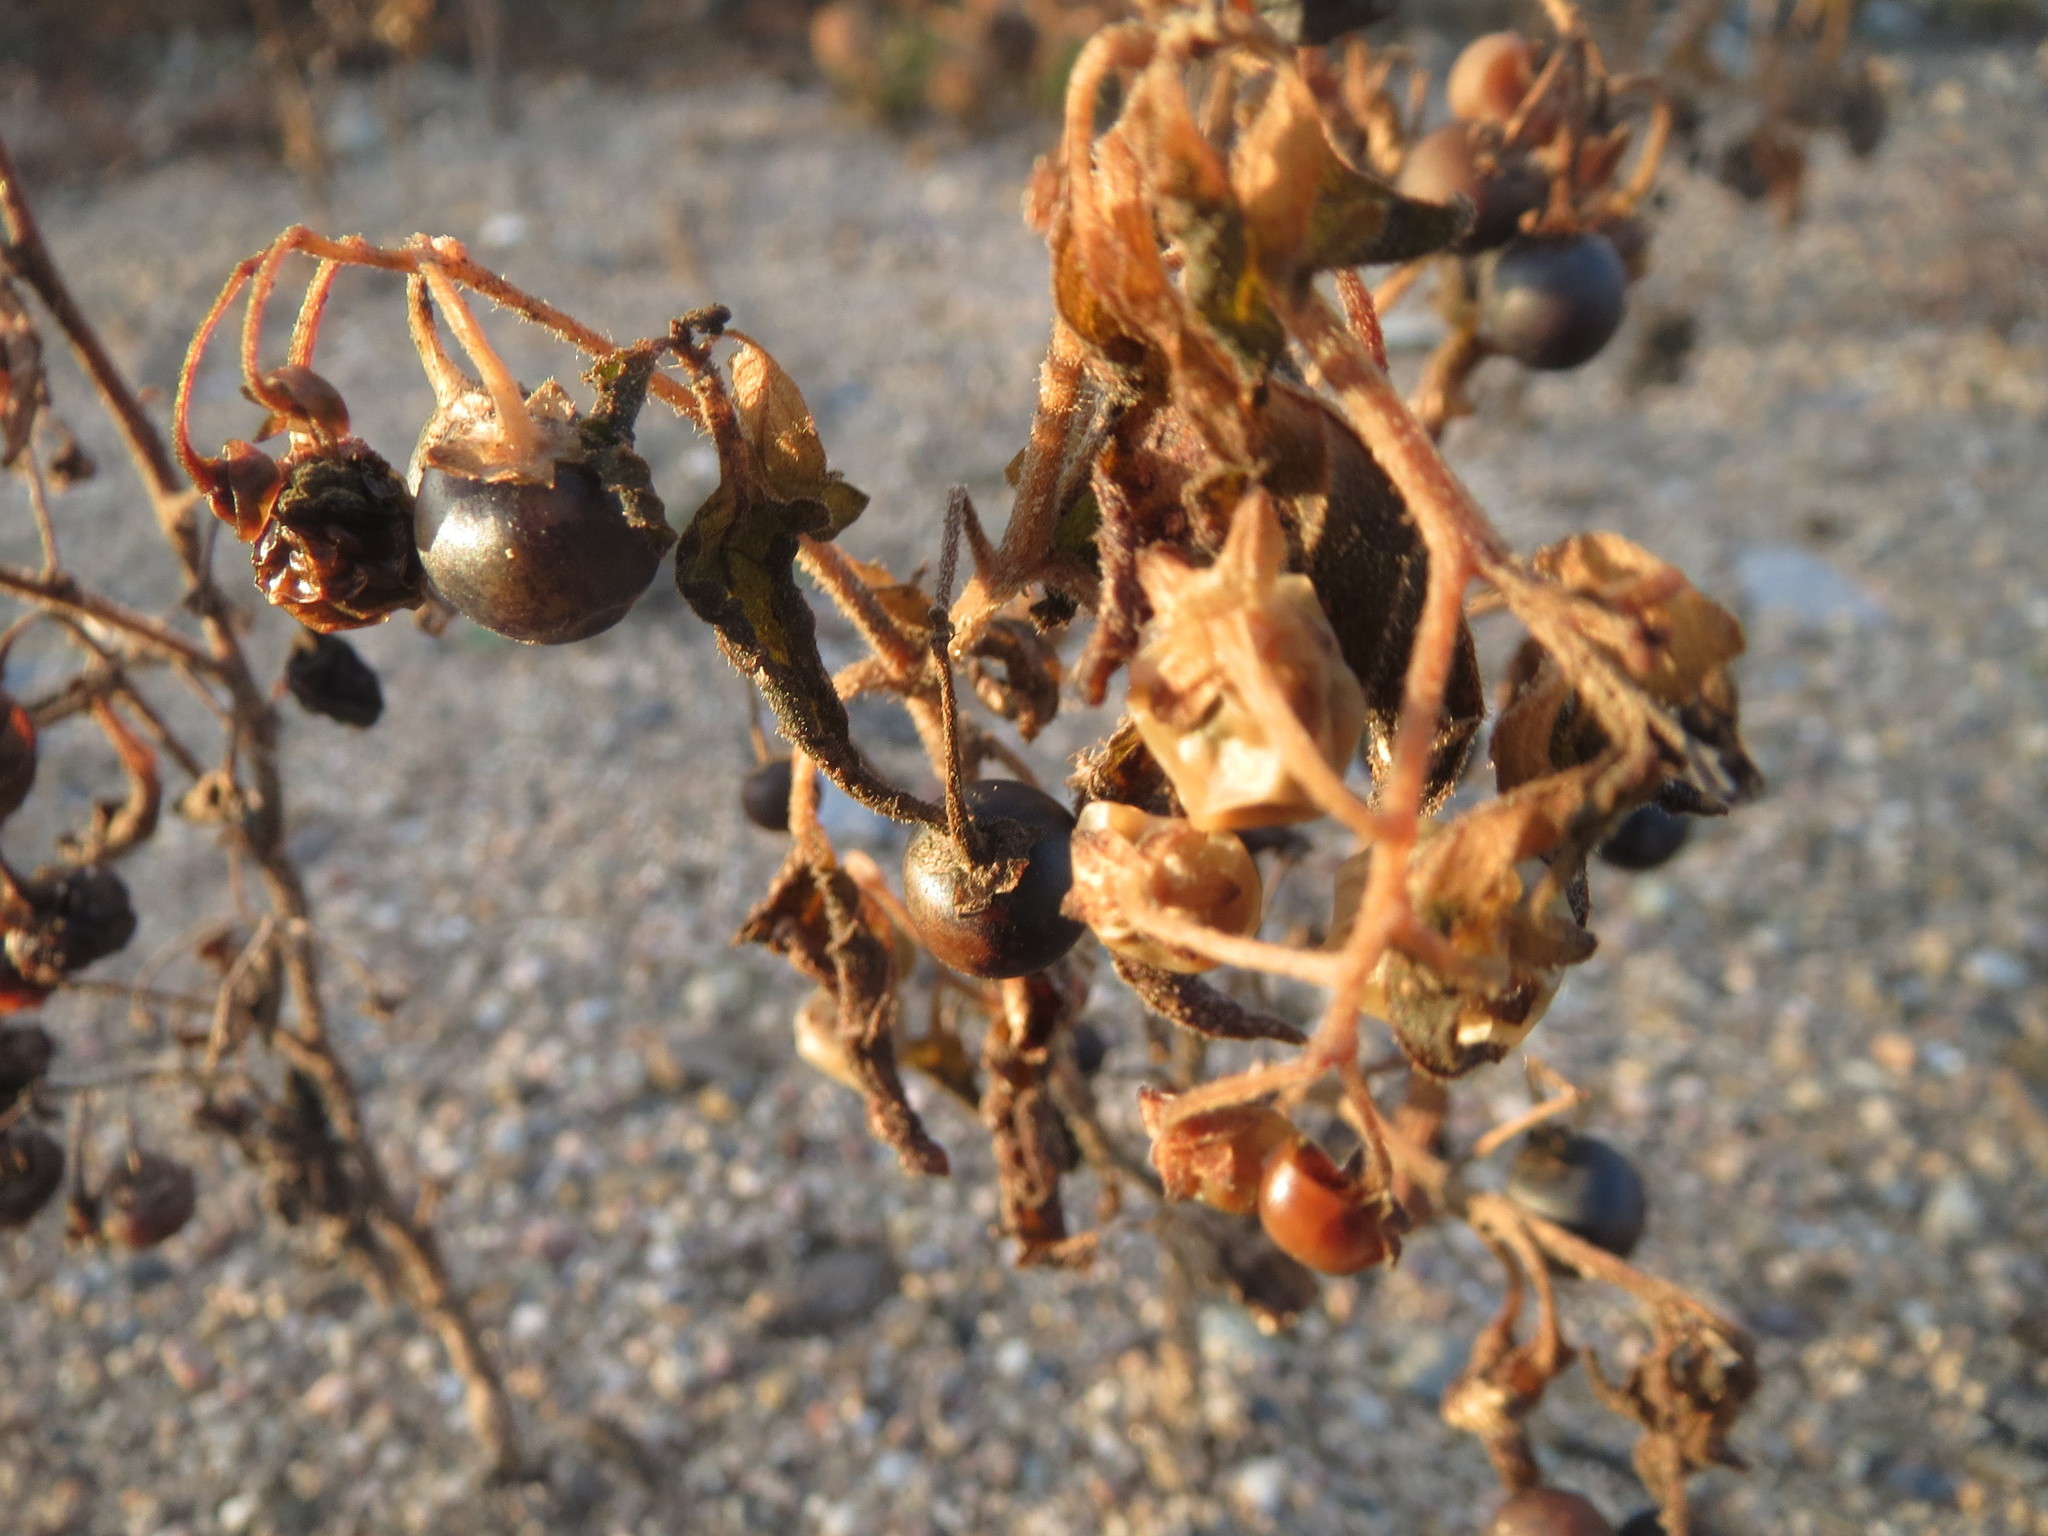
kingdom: Plantae
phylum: Tracheophyta
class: Magnoliopsida
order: Solanales
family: Solanaceae
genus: Solanum
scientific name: Solanum nigrum
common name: Black nightshade
